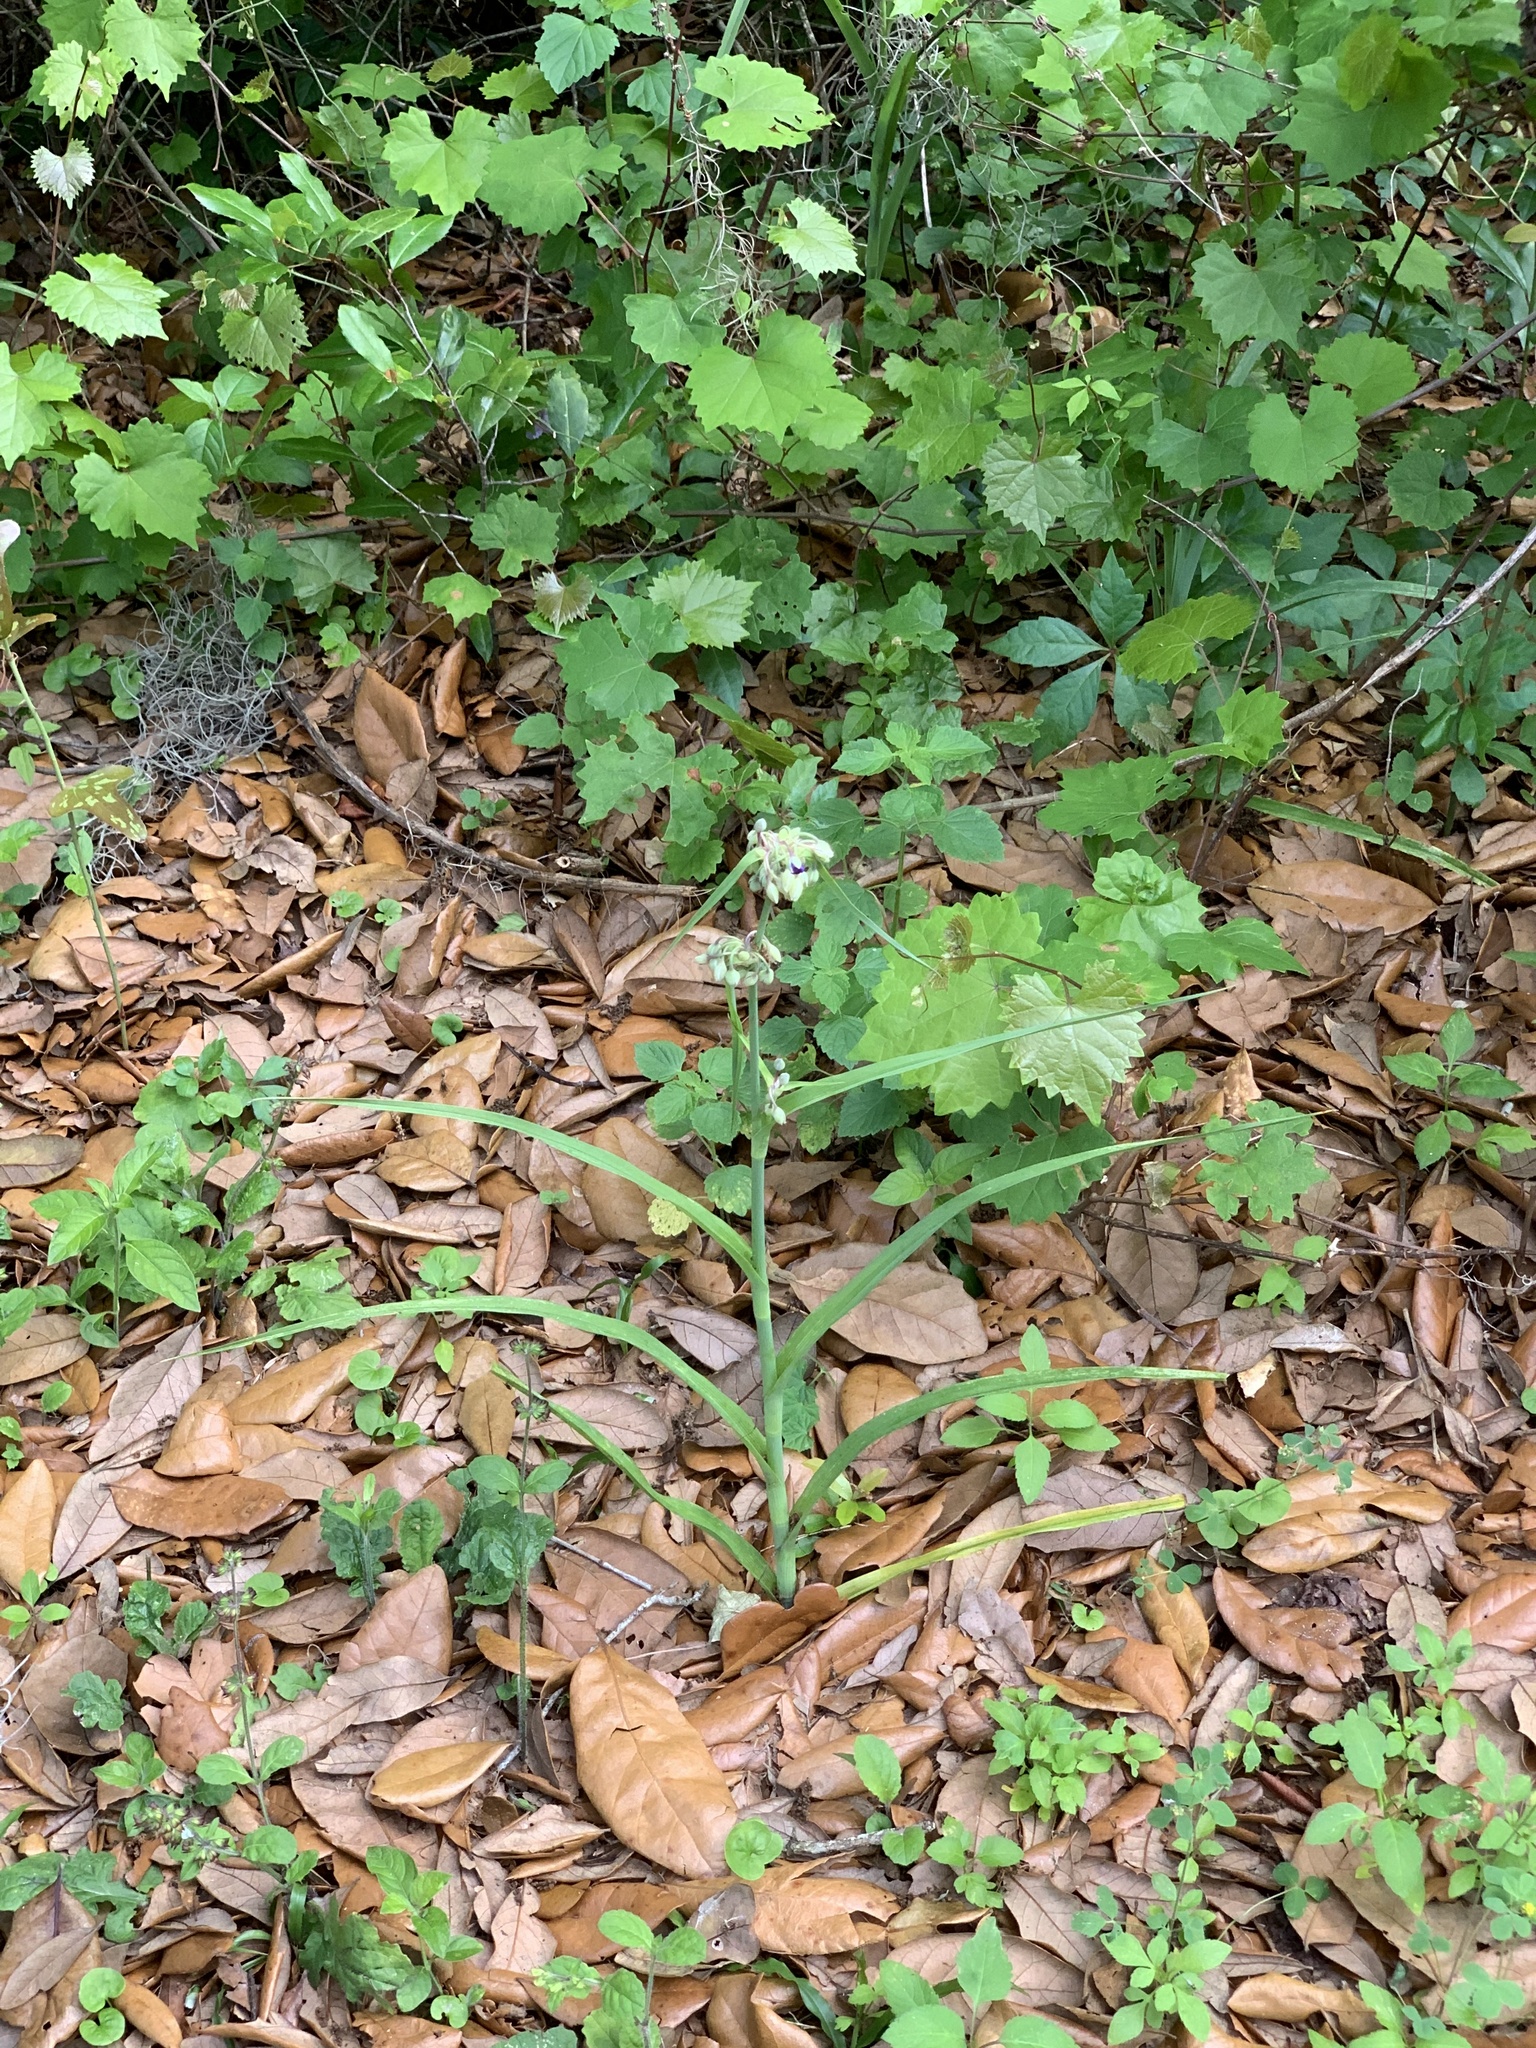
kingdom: Plantae
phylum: Tracheophyta
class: Liliopsida
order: Commelinales
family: Commelinaceae
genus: Tradescantia
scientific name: Tradescantia ohiensis
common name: Ohio spiderwort
